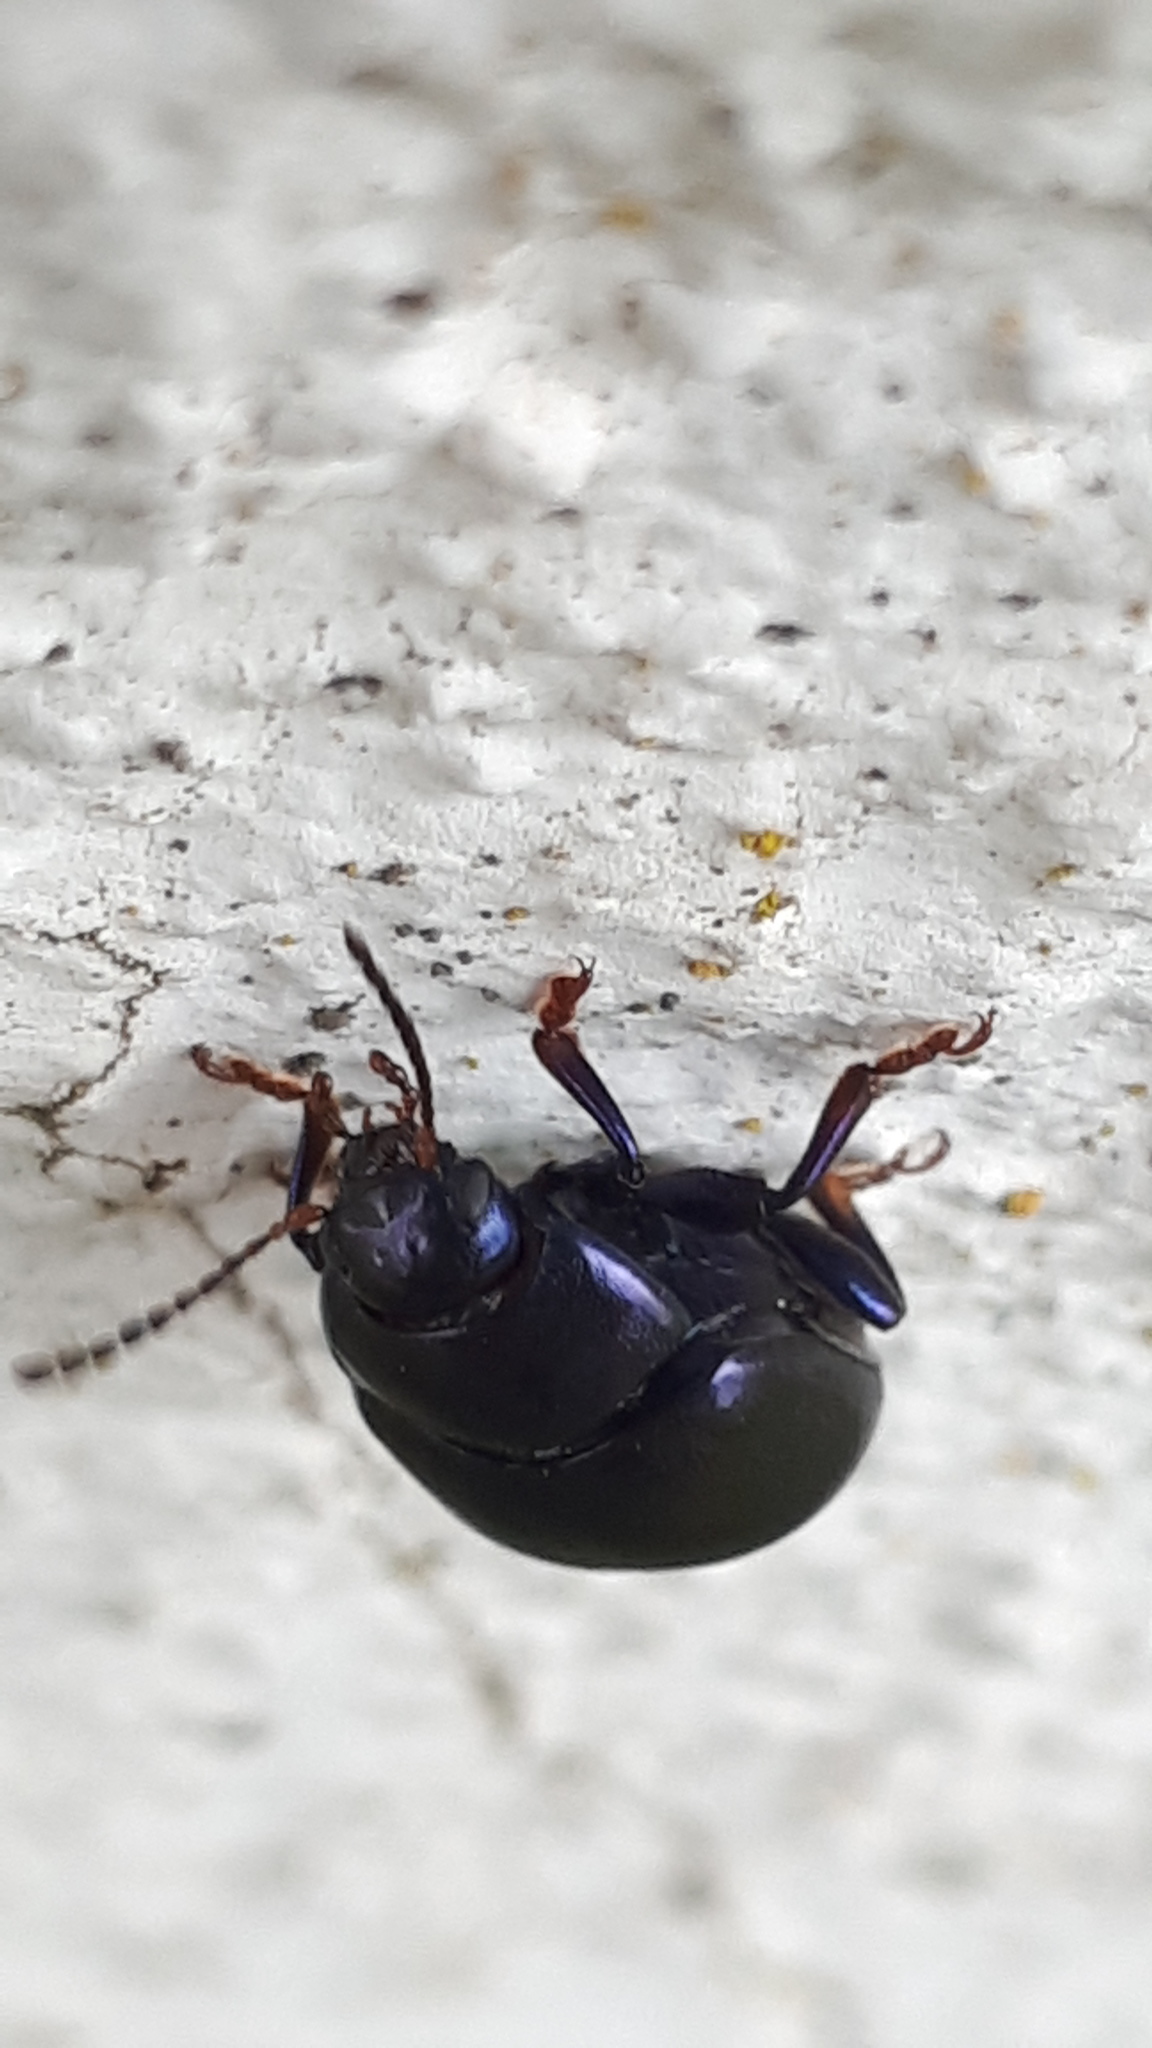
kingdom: Animalia
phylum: Arthropoda
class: Insecta
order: Coleoptera
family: Chrysomelidae
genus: Chrysolina
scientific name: Chrysolina sturmi
